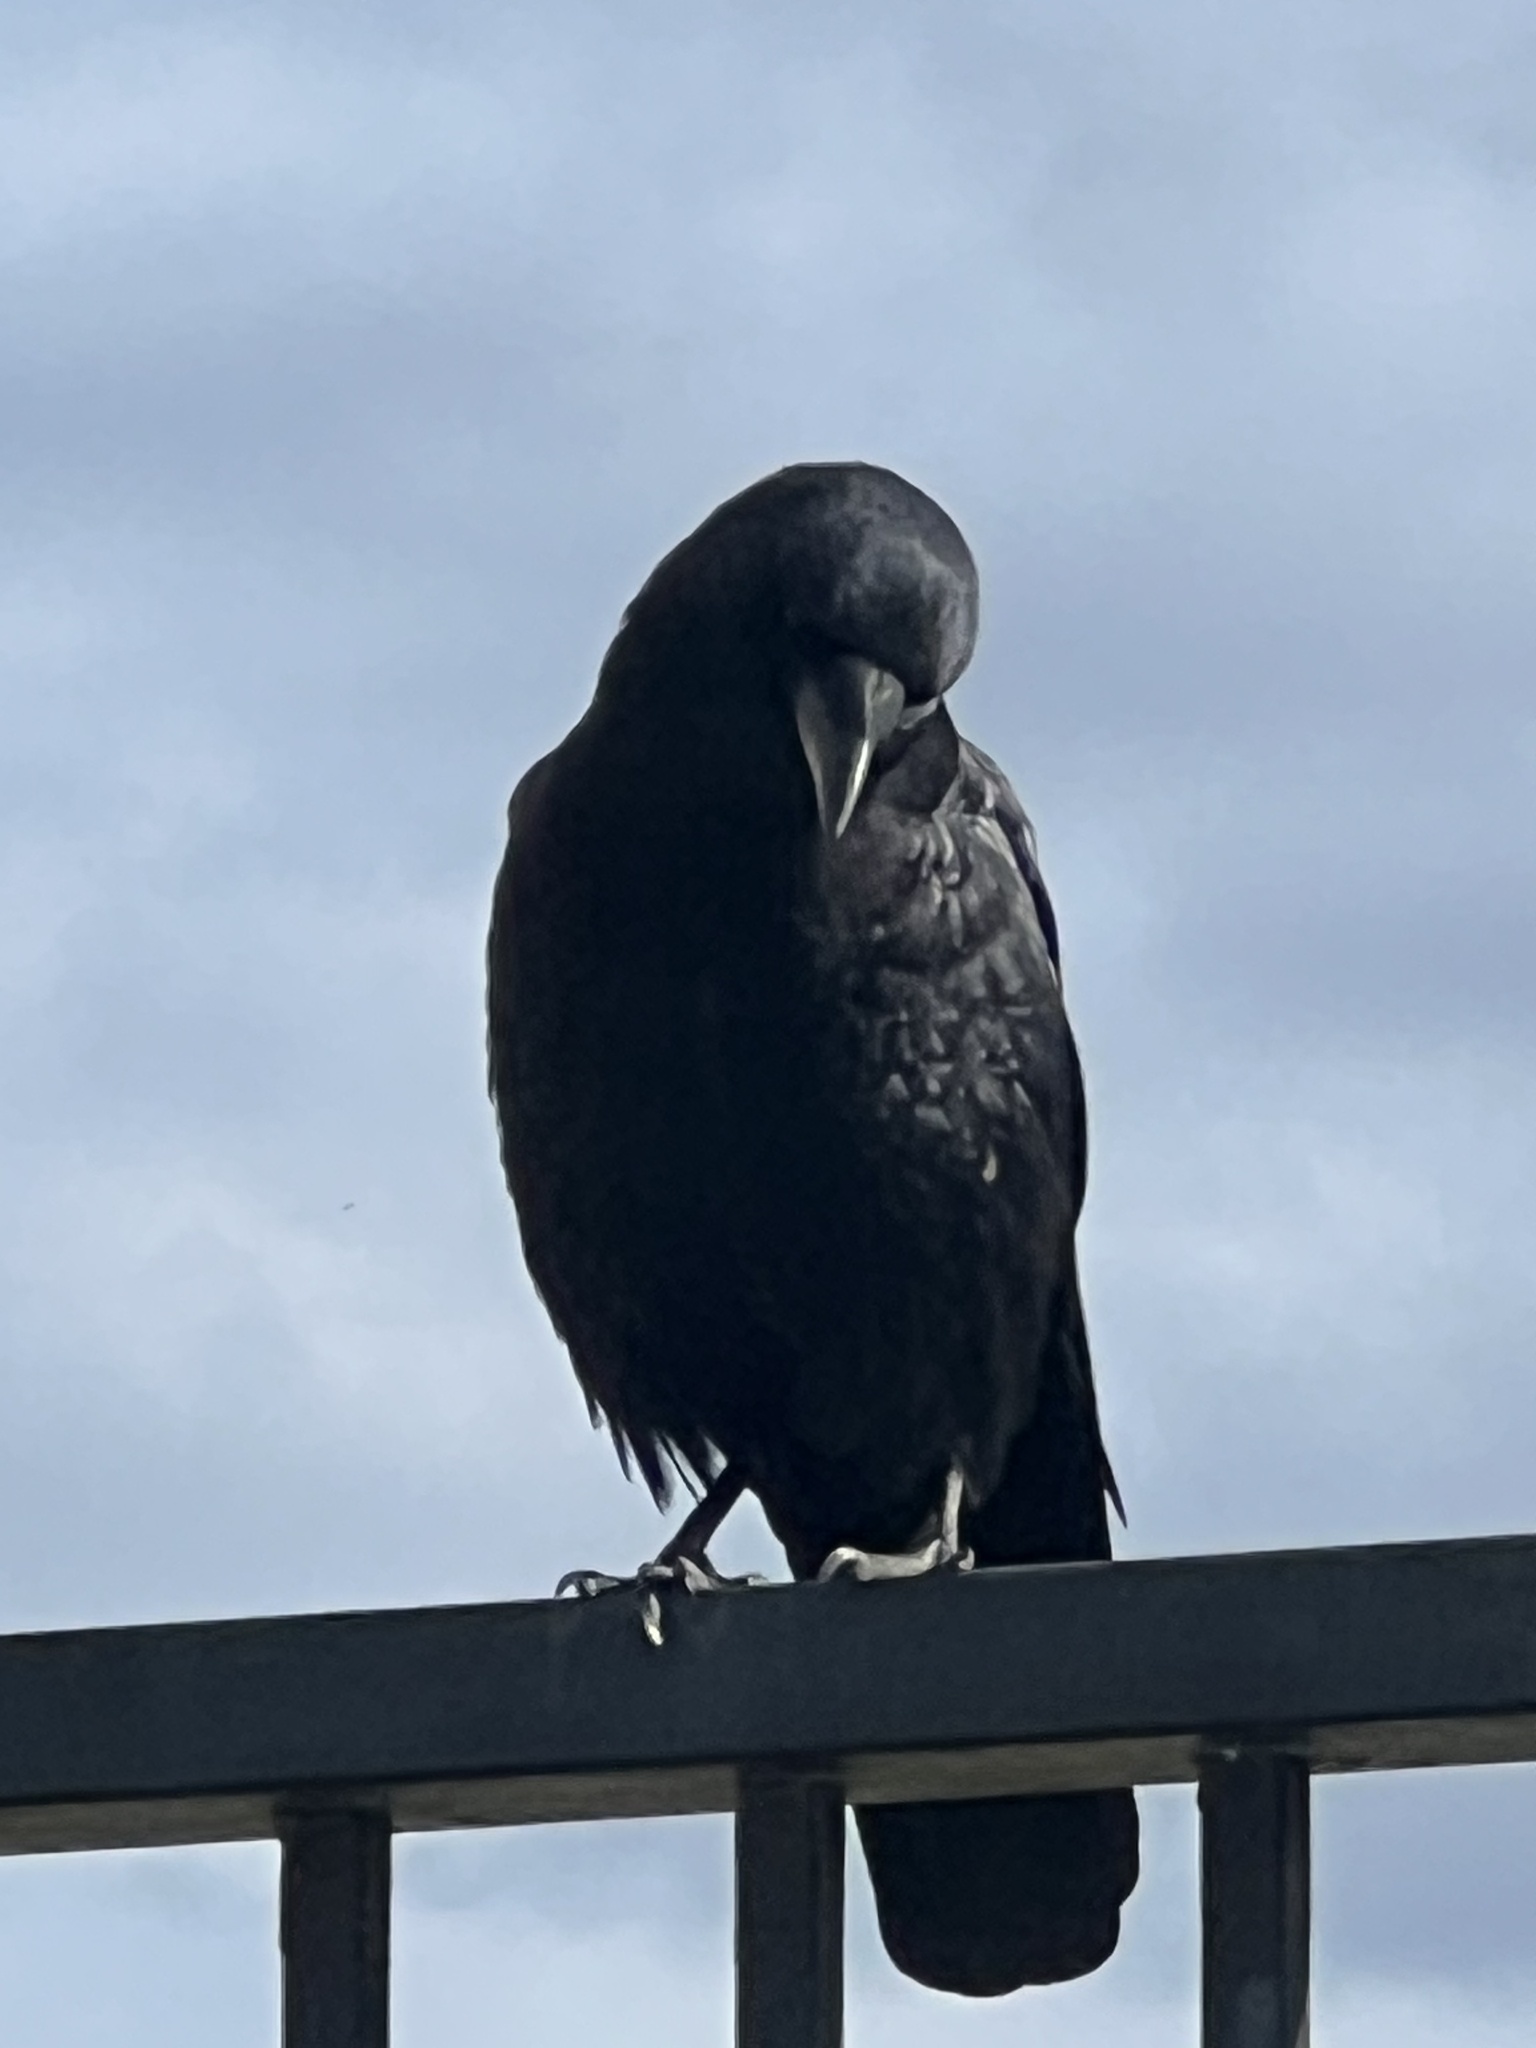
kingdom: Animalia
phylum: Chordata
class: Aves
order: Passeriformes
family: Corvidae
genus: Corvus
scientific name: Corvus brachyrhynchos
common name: American crow
